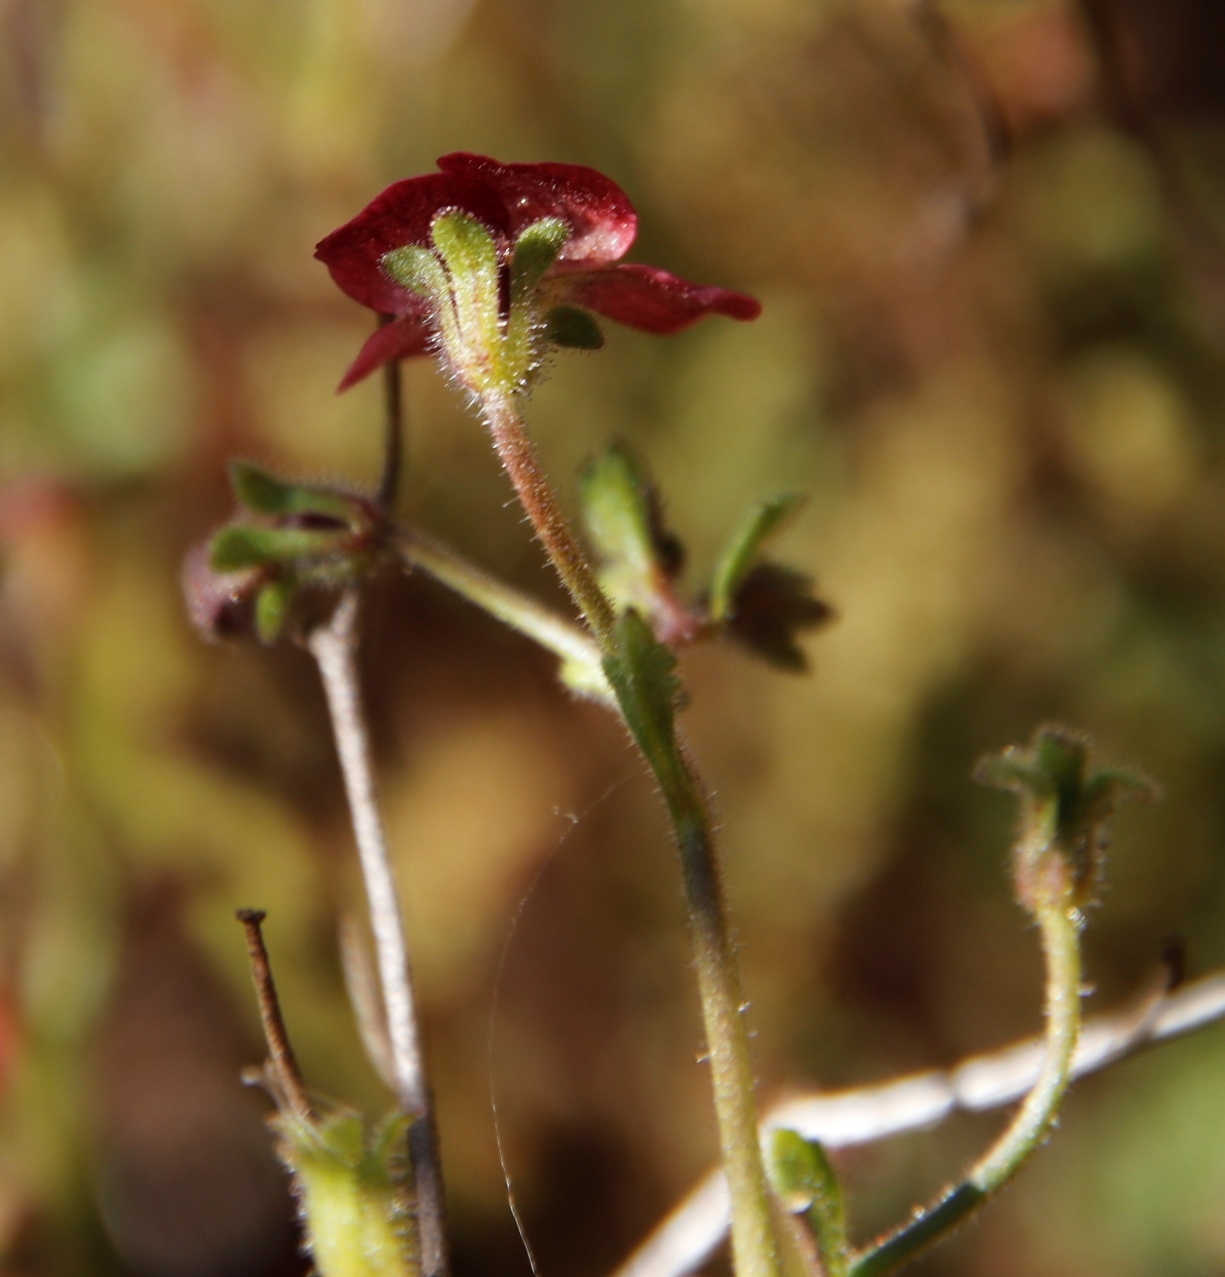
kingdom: Plantae
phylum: Tracheophyta
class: Magnoliopsida
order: Lamiales
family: Scrophulariaceae
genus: Jamesbrittenia
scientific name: Jamesbrittenia breviflora
